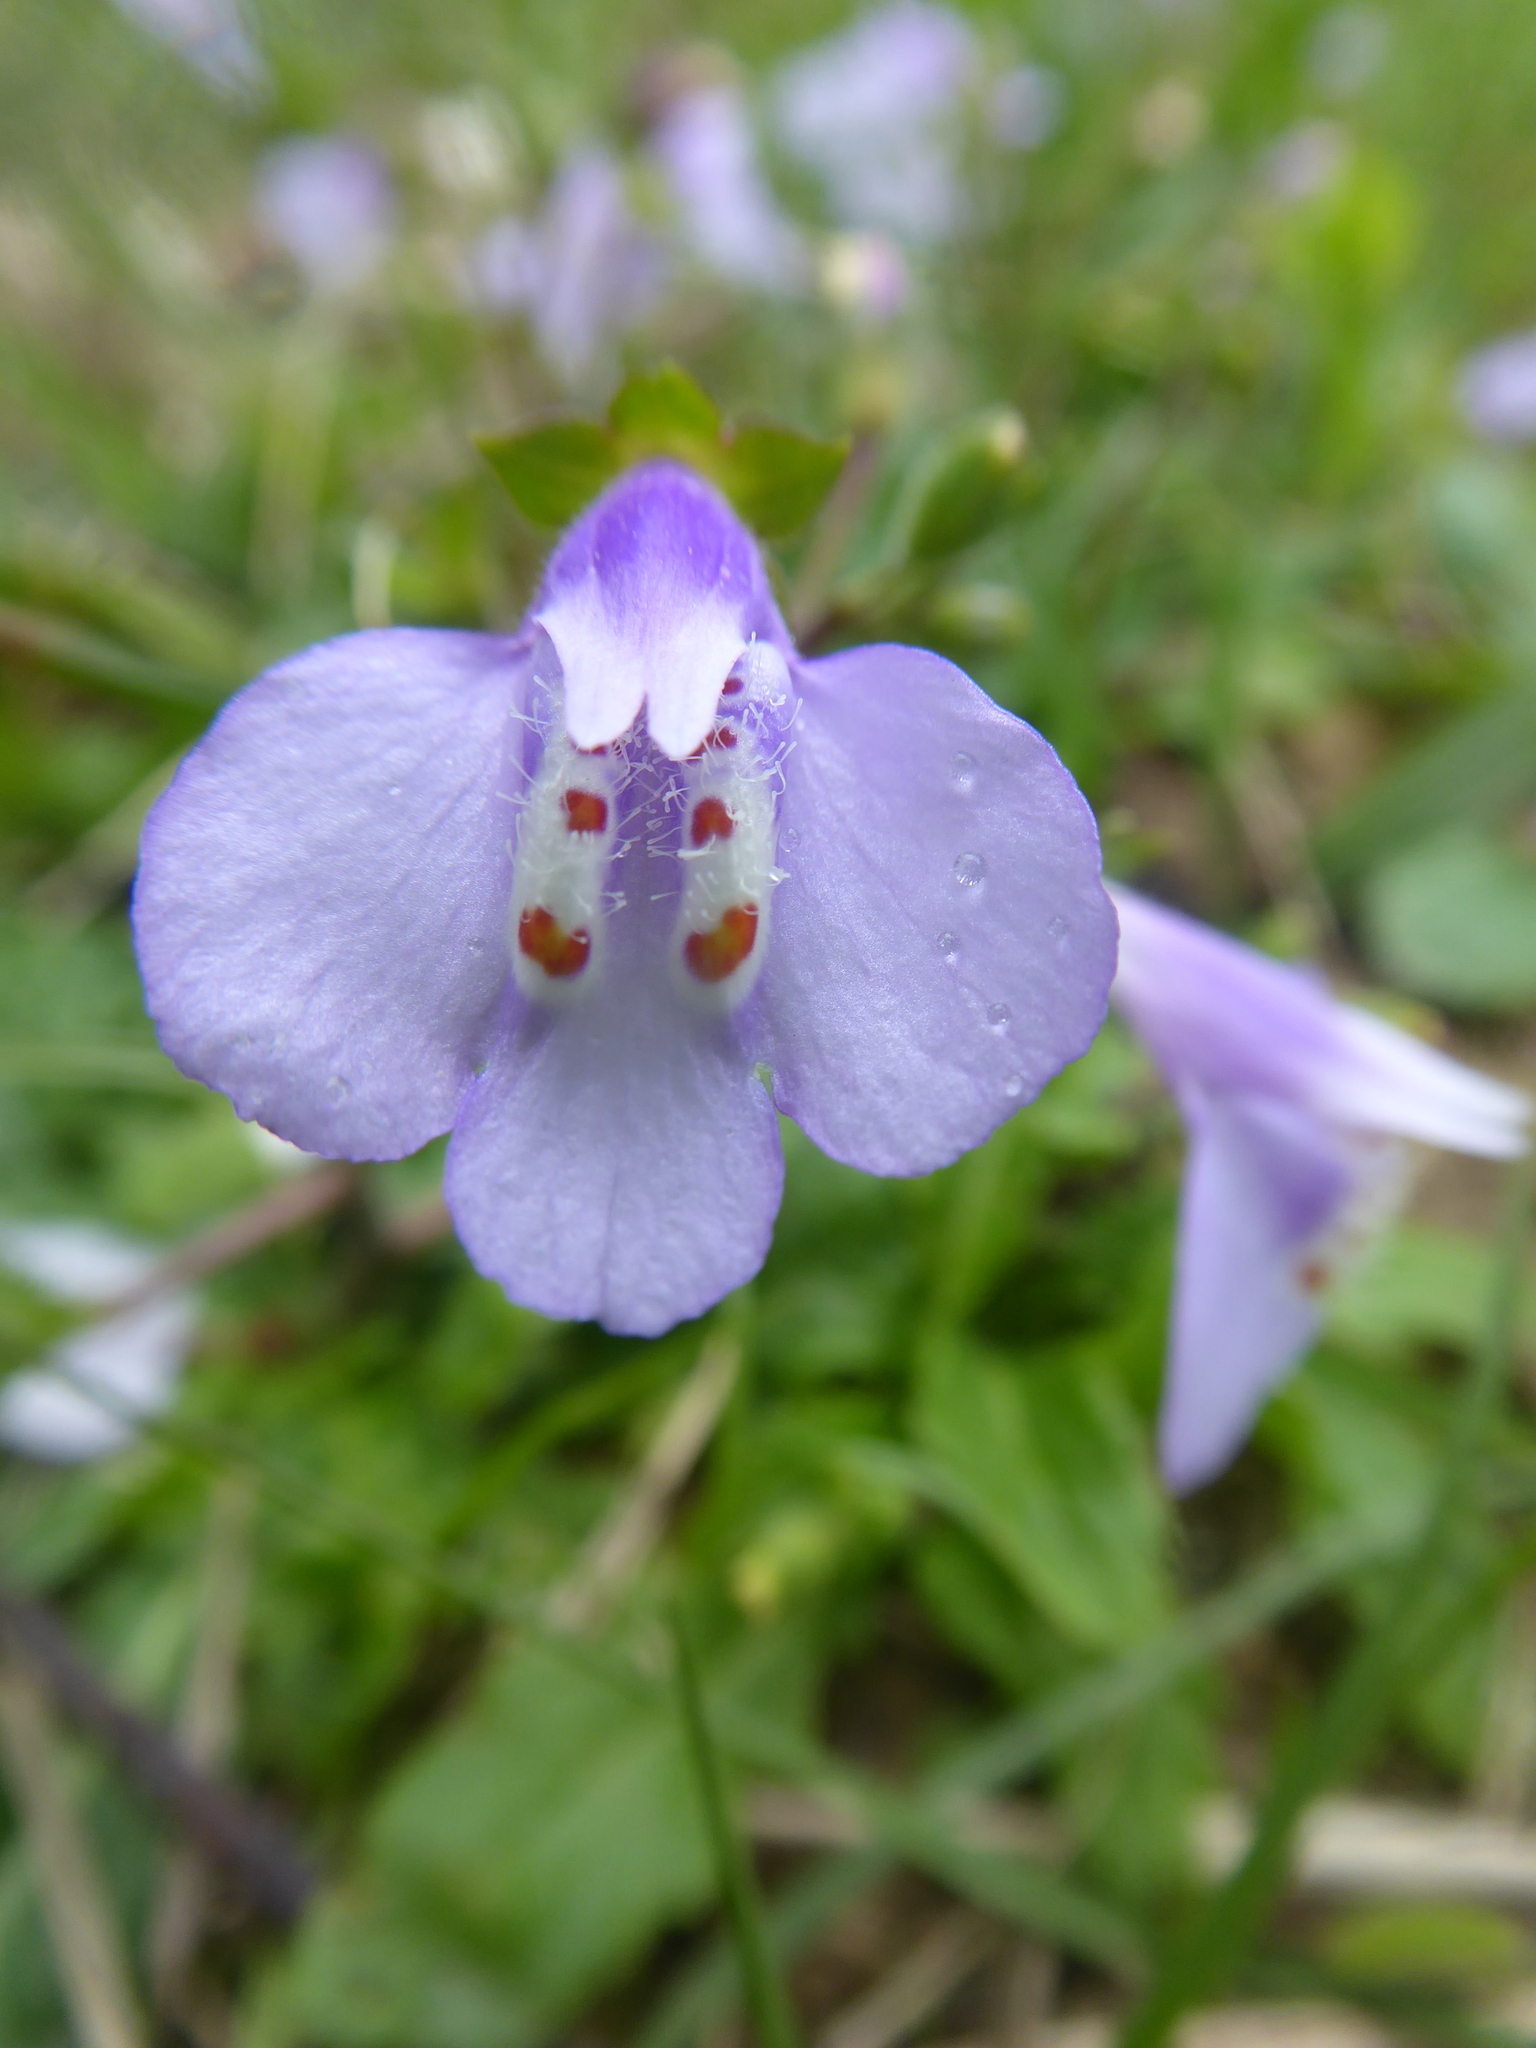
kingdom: Plantae
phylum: Tracheophyta
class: Magnoliopsida
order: Lamiales
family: Mazaceae
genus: Mazus
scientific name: Mazus fauriei
